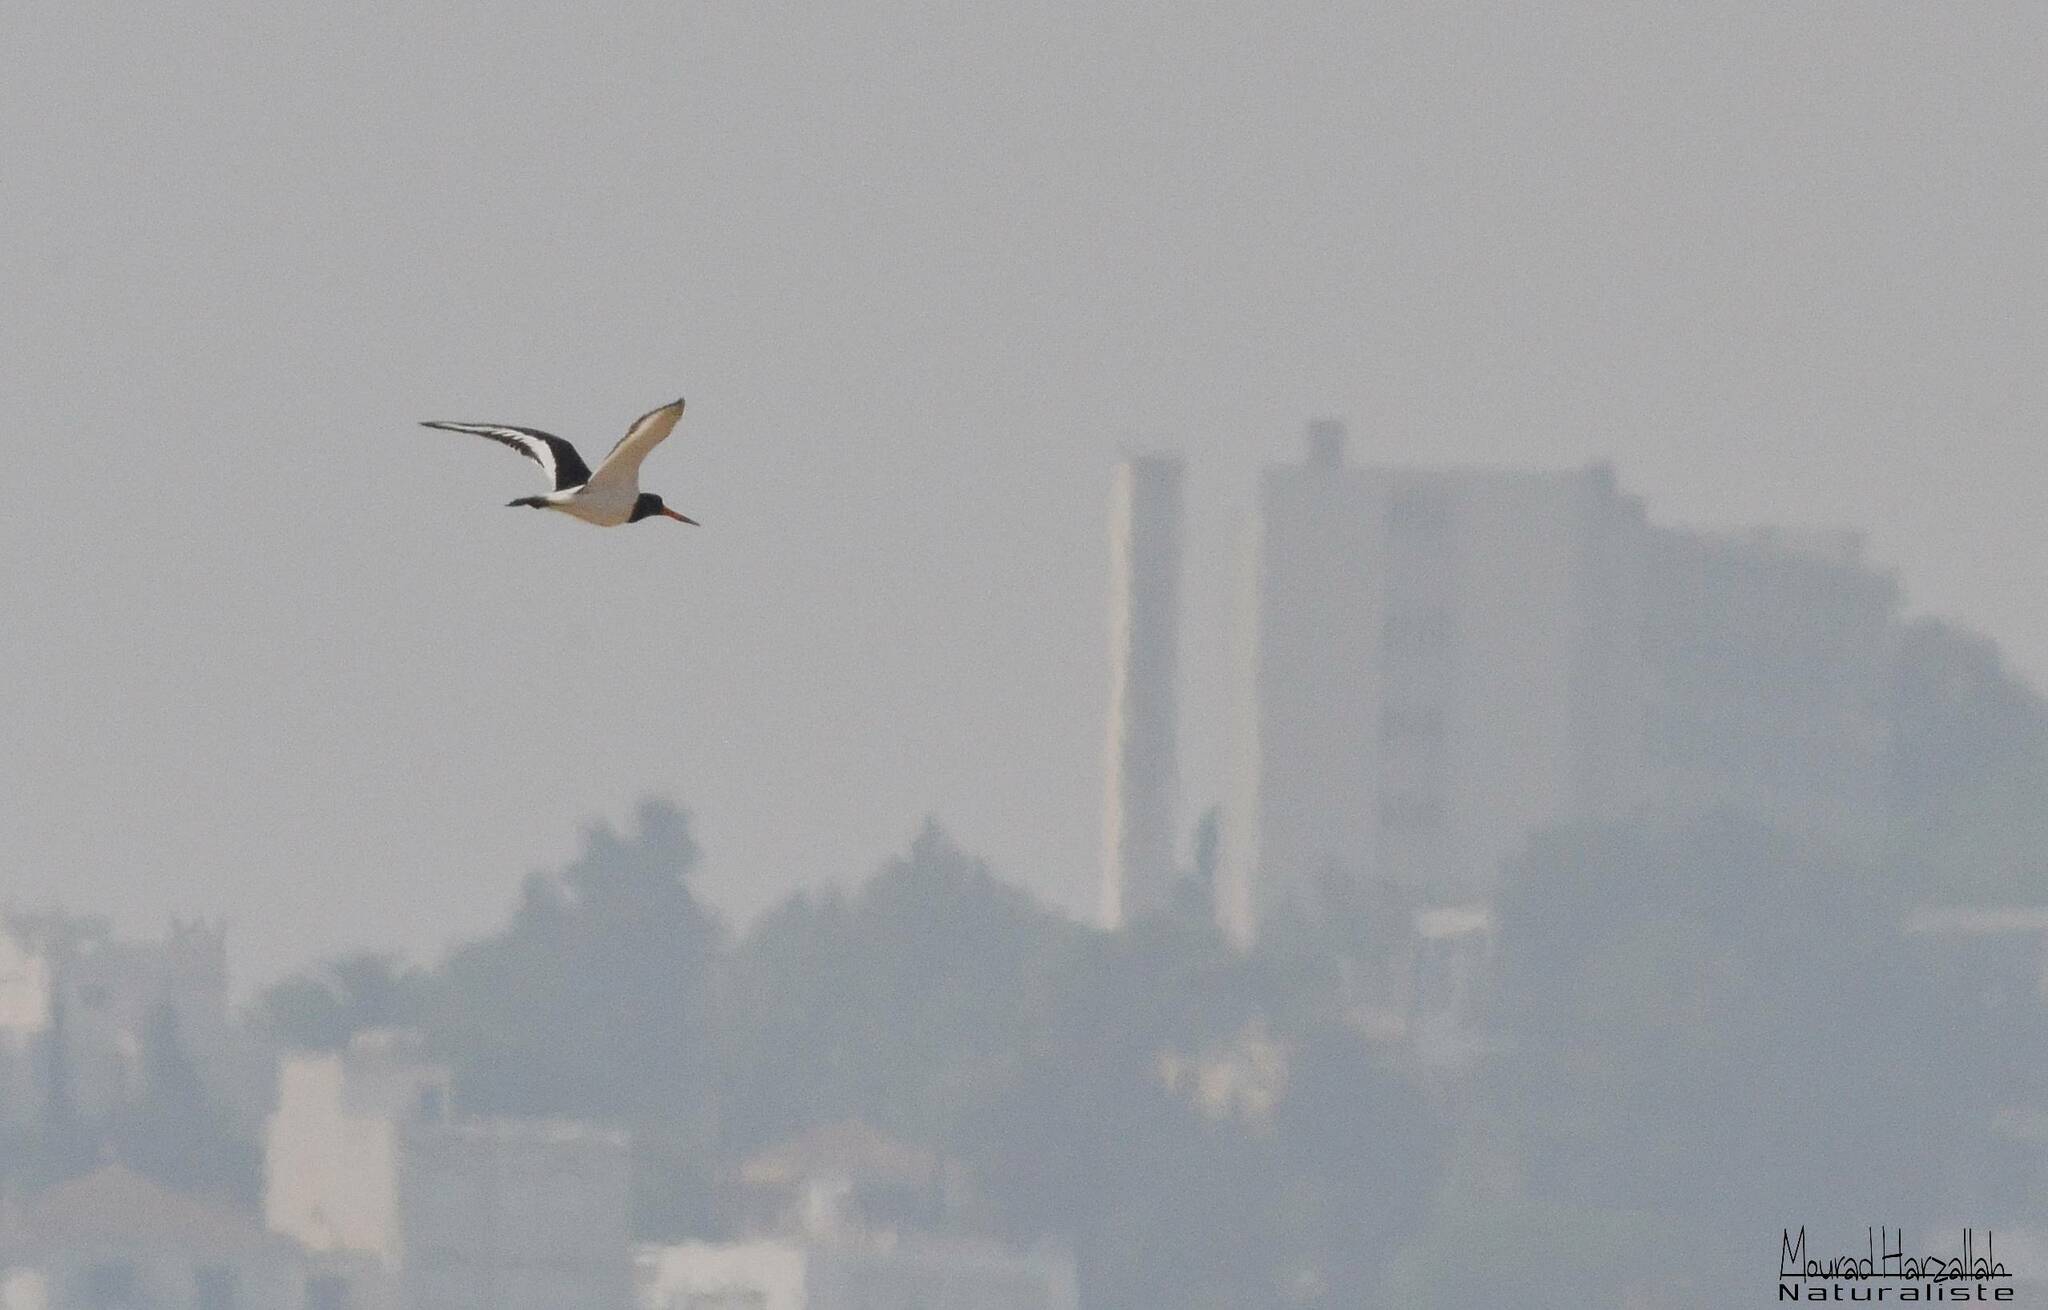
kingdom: Animalia
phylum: Chordata
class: Aves
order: Charadriiformes
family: Haematopodidae
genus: Haematopus
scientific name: Haematopus ostralegus
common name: Eurasian oystercatcher
